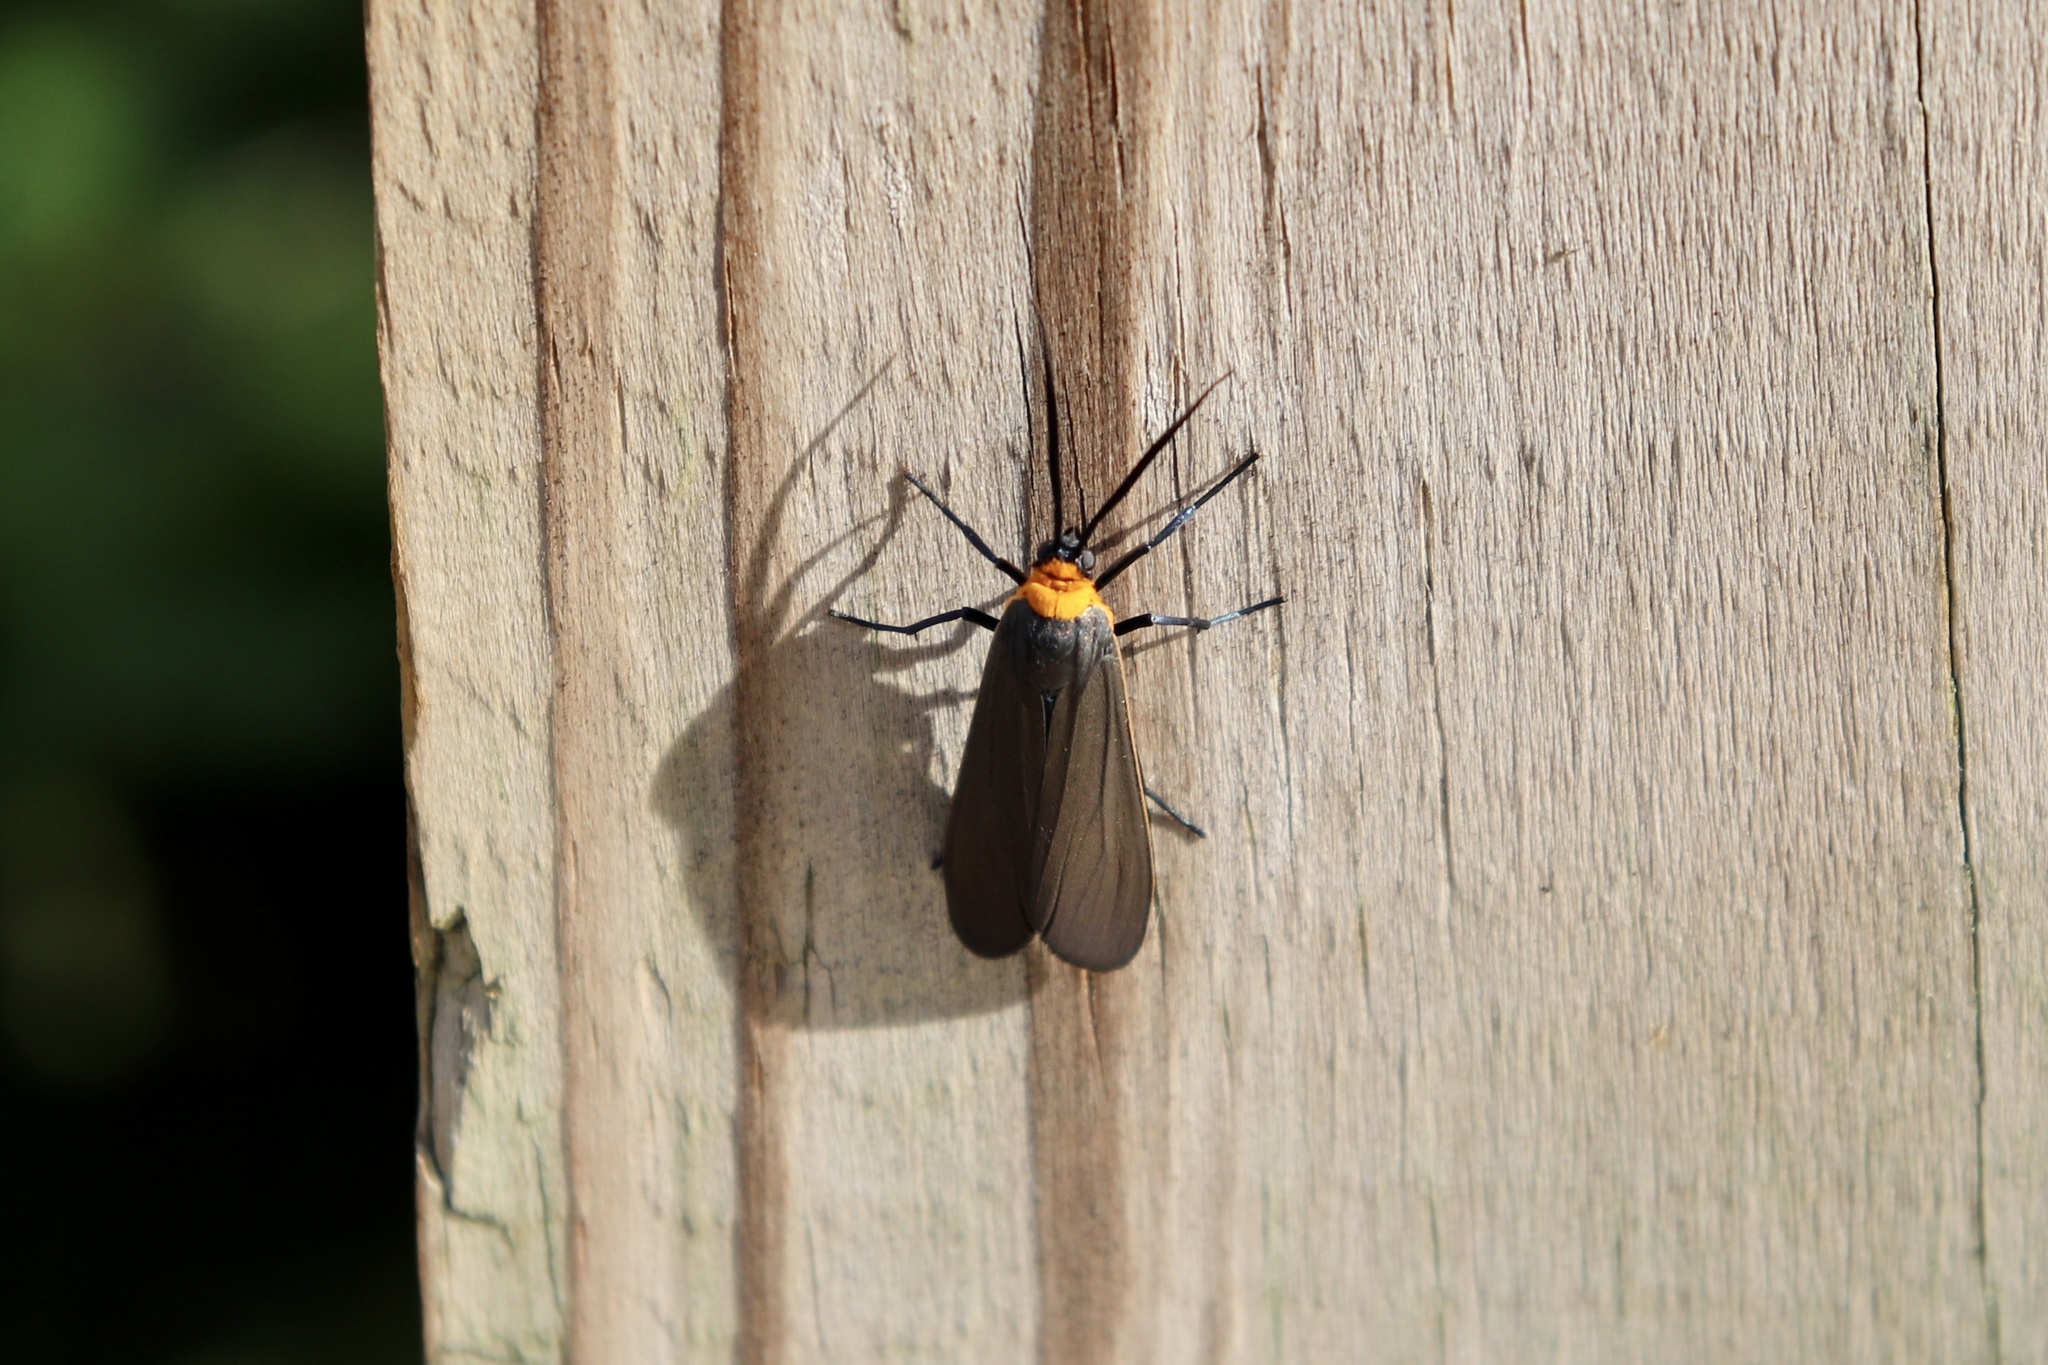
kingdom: Animalia
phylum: Arthropoda
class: Insecta
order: Lepidoptera
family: Erebidae
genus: Cisseps
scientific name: Cisseps fulvicollis
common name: Yellow-collared scape moth
